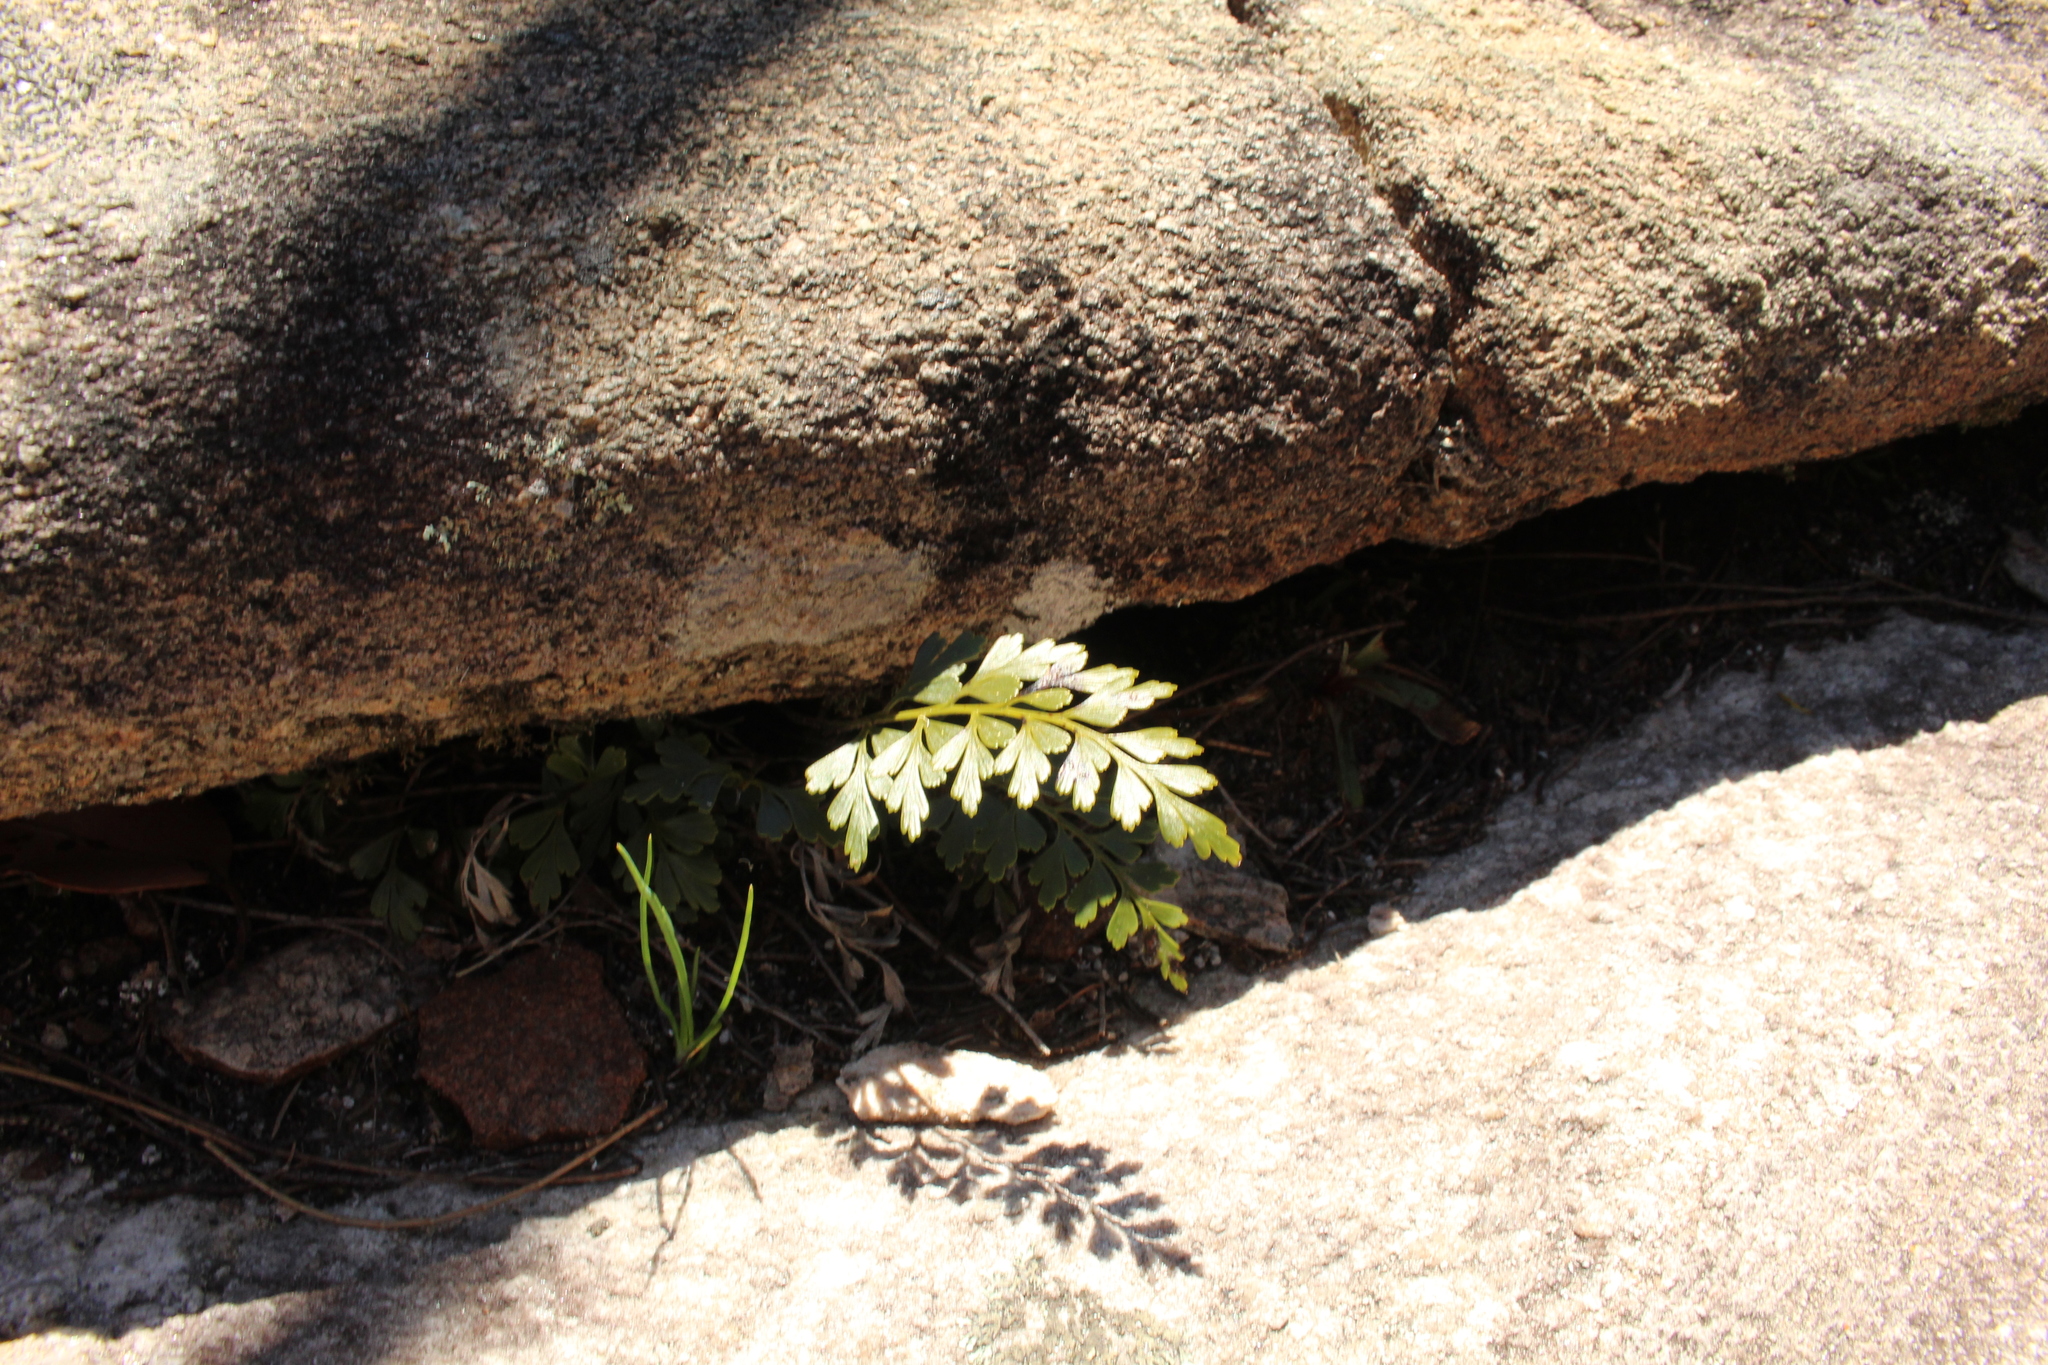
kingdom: Plantae
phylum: Tracheophyta
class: Polypodiopsida
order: Polypodiales
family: Aspleniaceae
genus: Asplenium
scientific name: Asplenium aethiopicum
